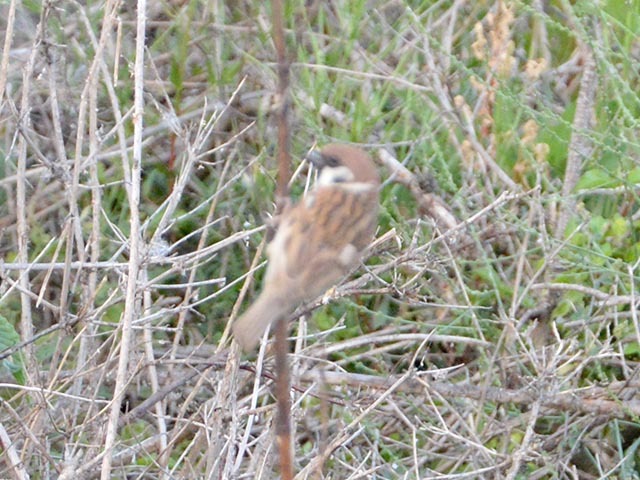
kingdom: Animalia
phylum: Chordata
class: Aves
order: Passeriformes
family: Passeridae
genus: Passer
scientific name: Passer montanus
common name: Eurasian tree sparrow
